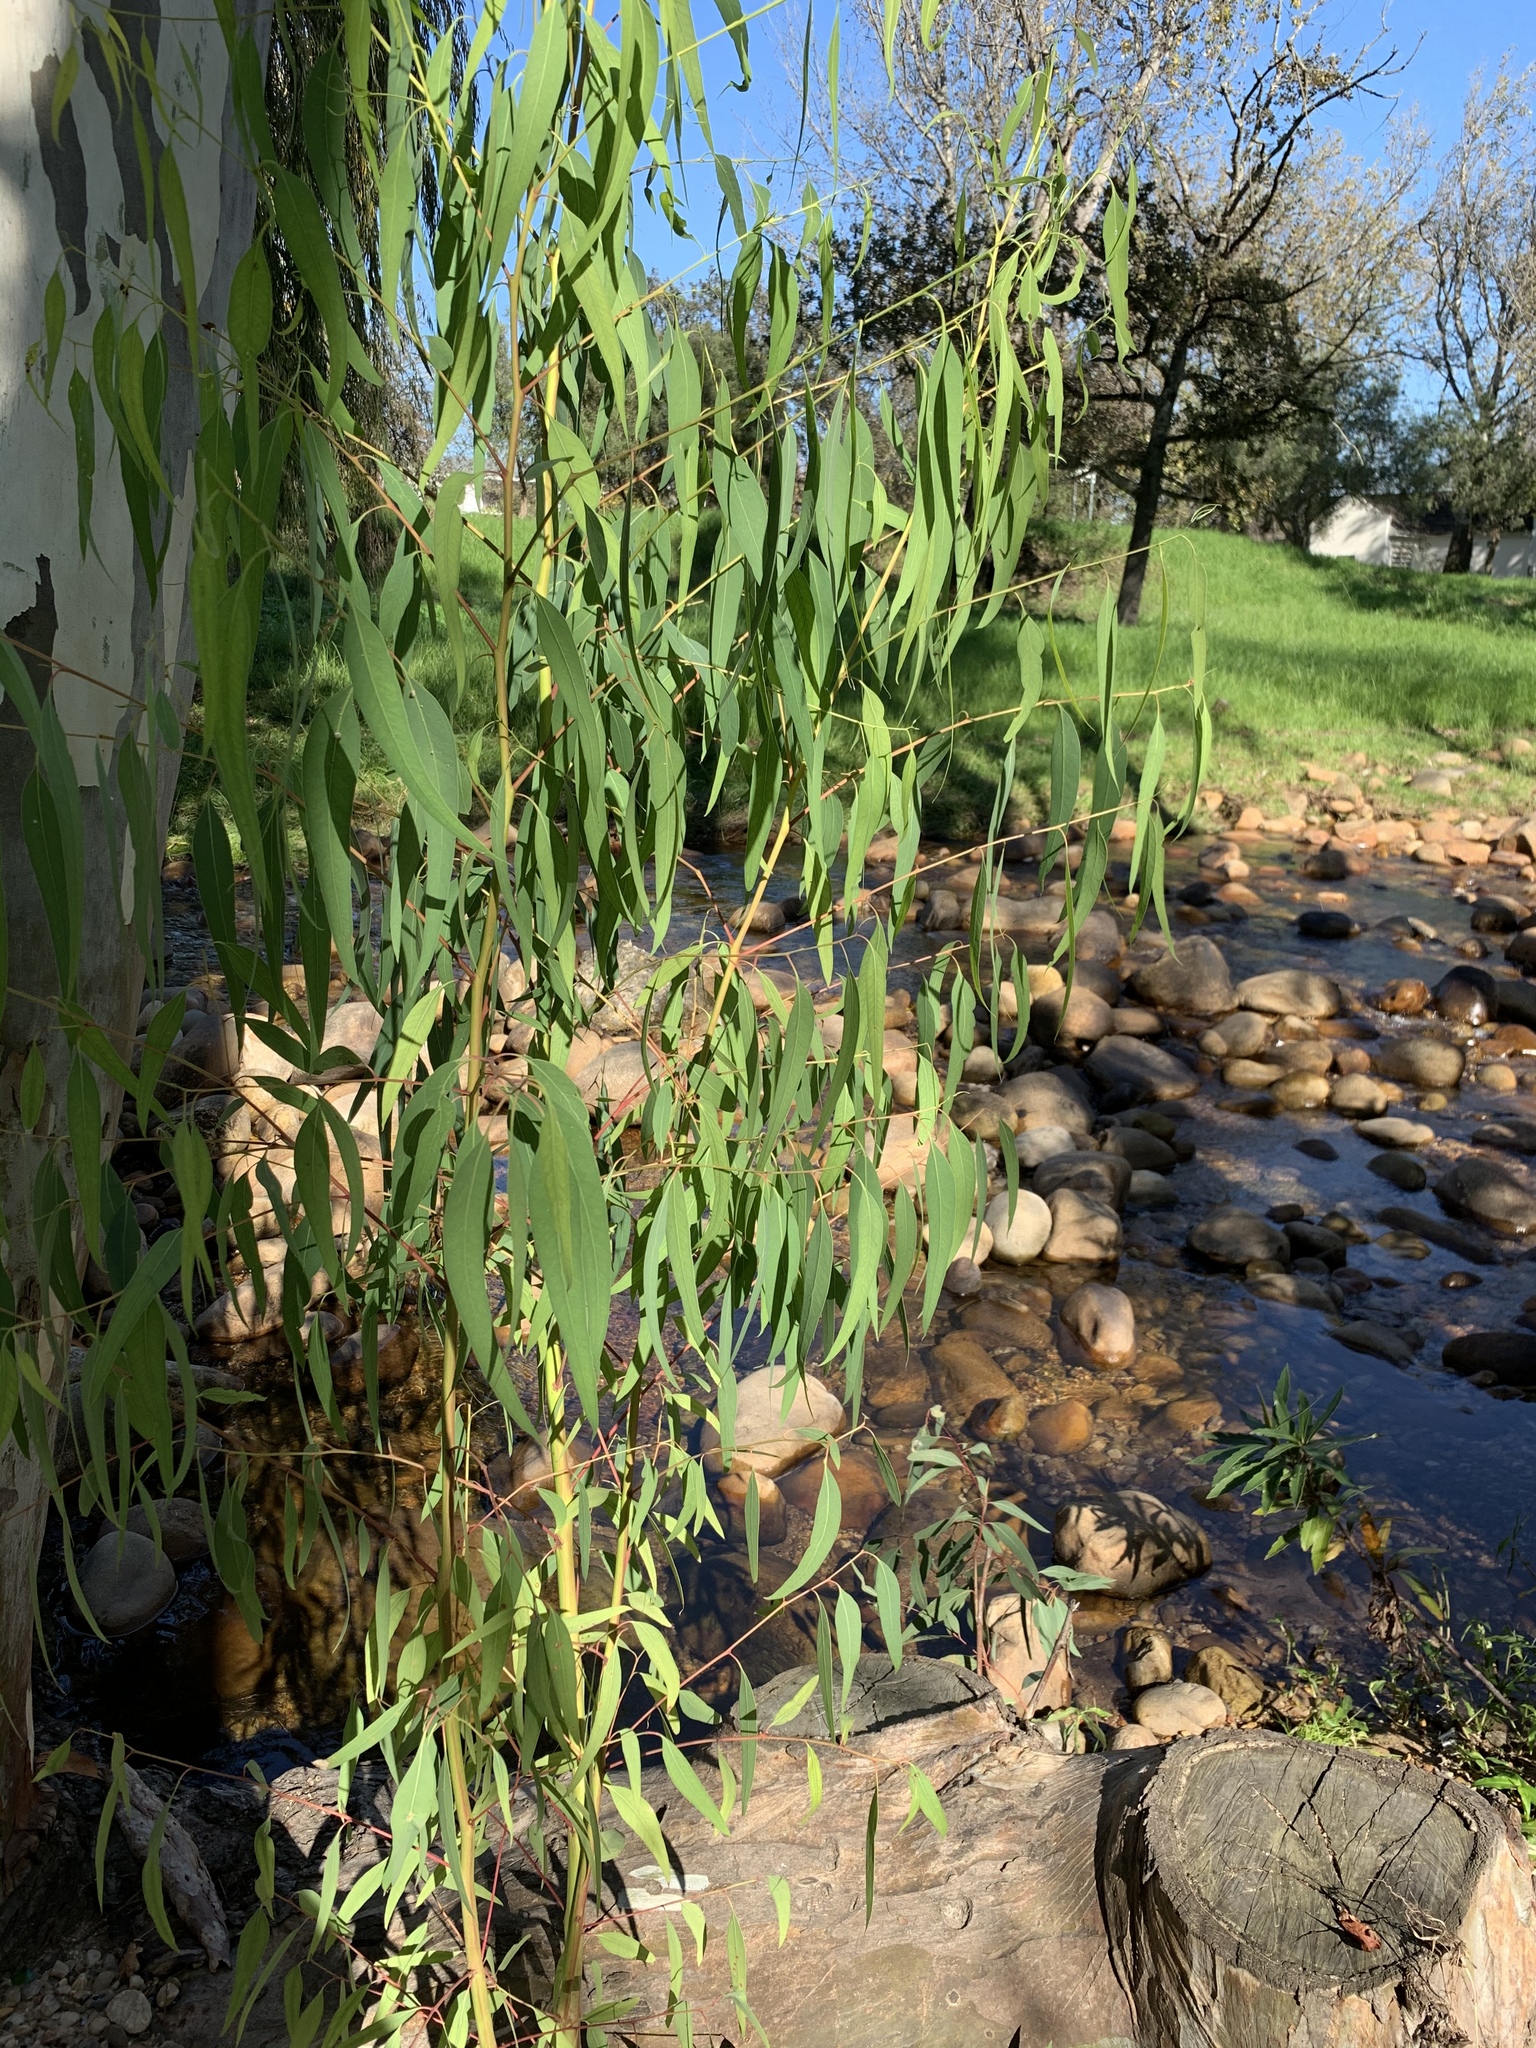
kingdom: Plantae
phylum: Tracheophyta
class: Magnoliopsida
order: Myrtales
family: Myrtaceae
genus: Eucalyptus
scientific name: Eucalyptus camaldulensis
